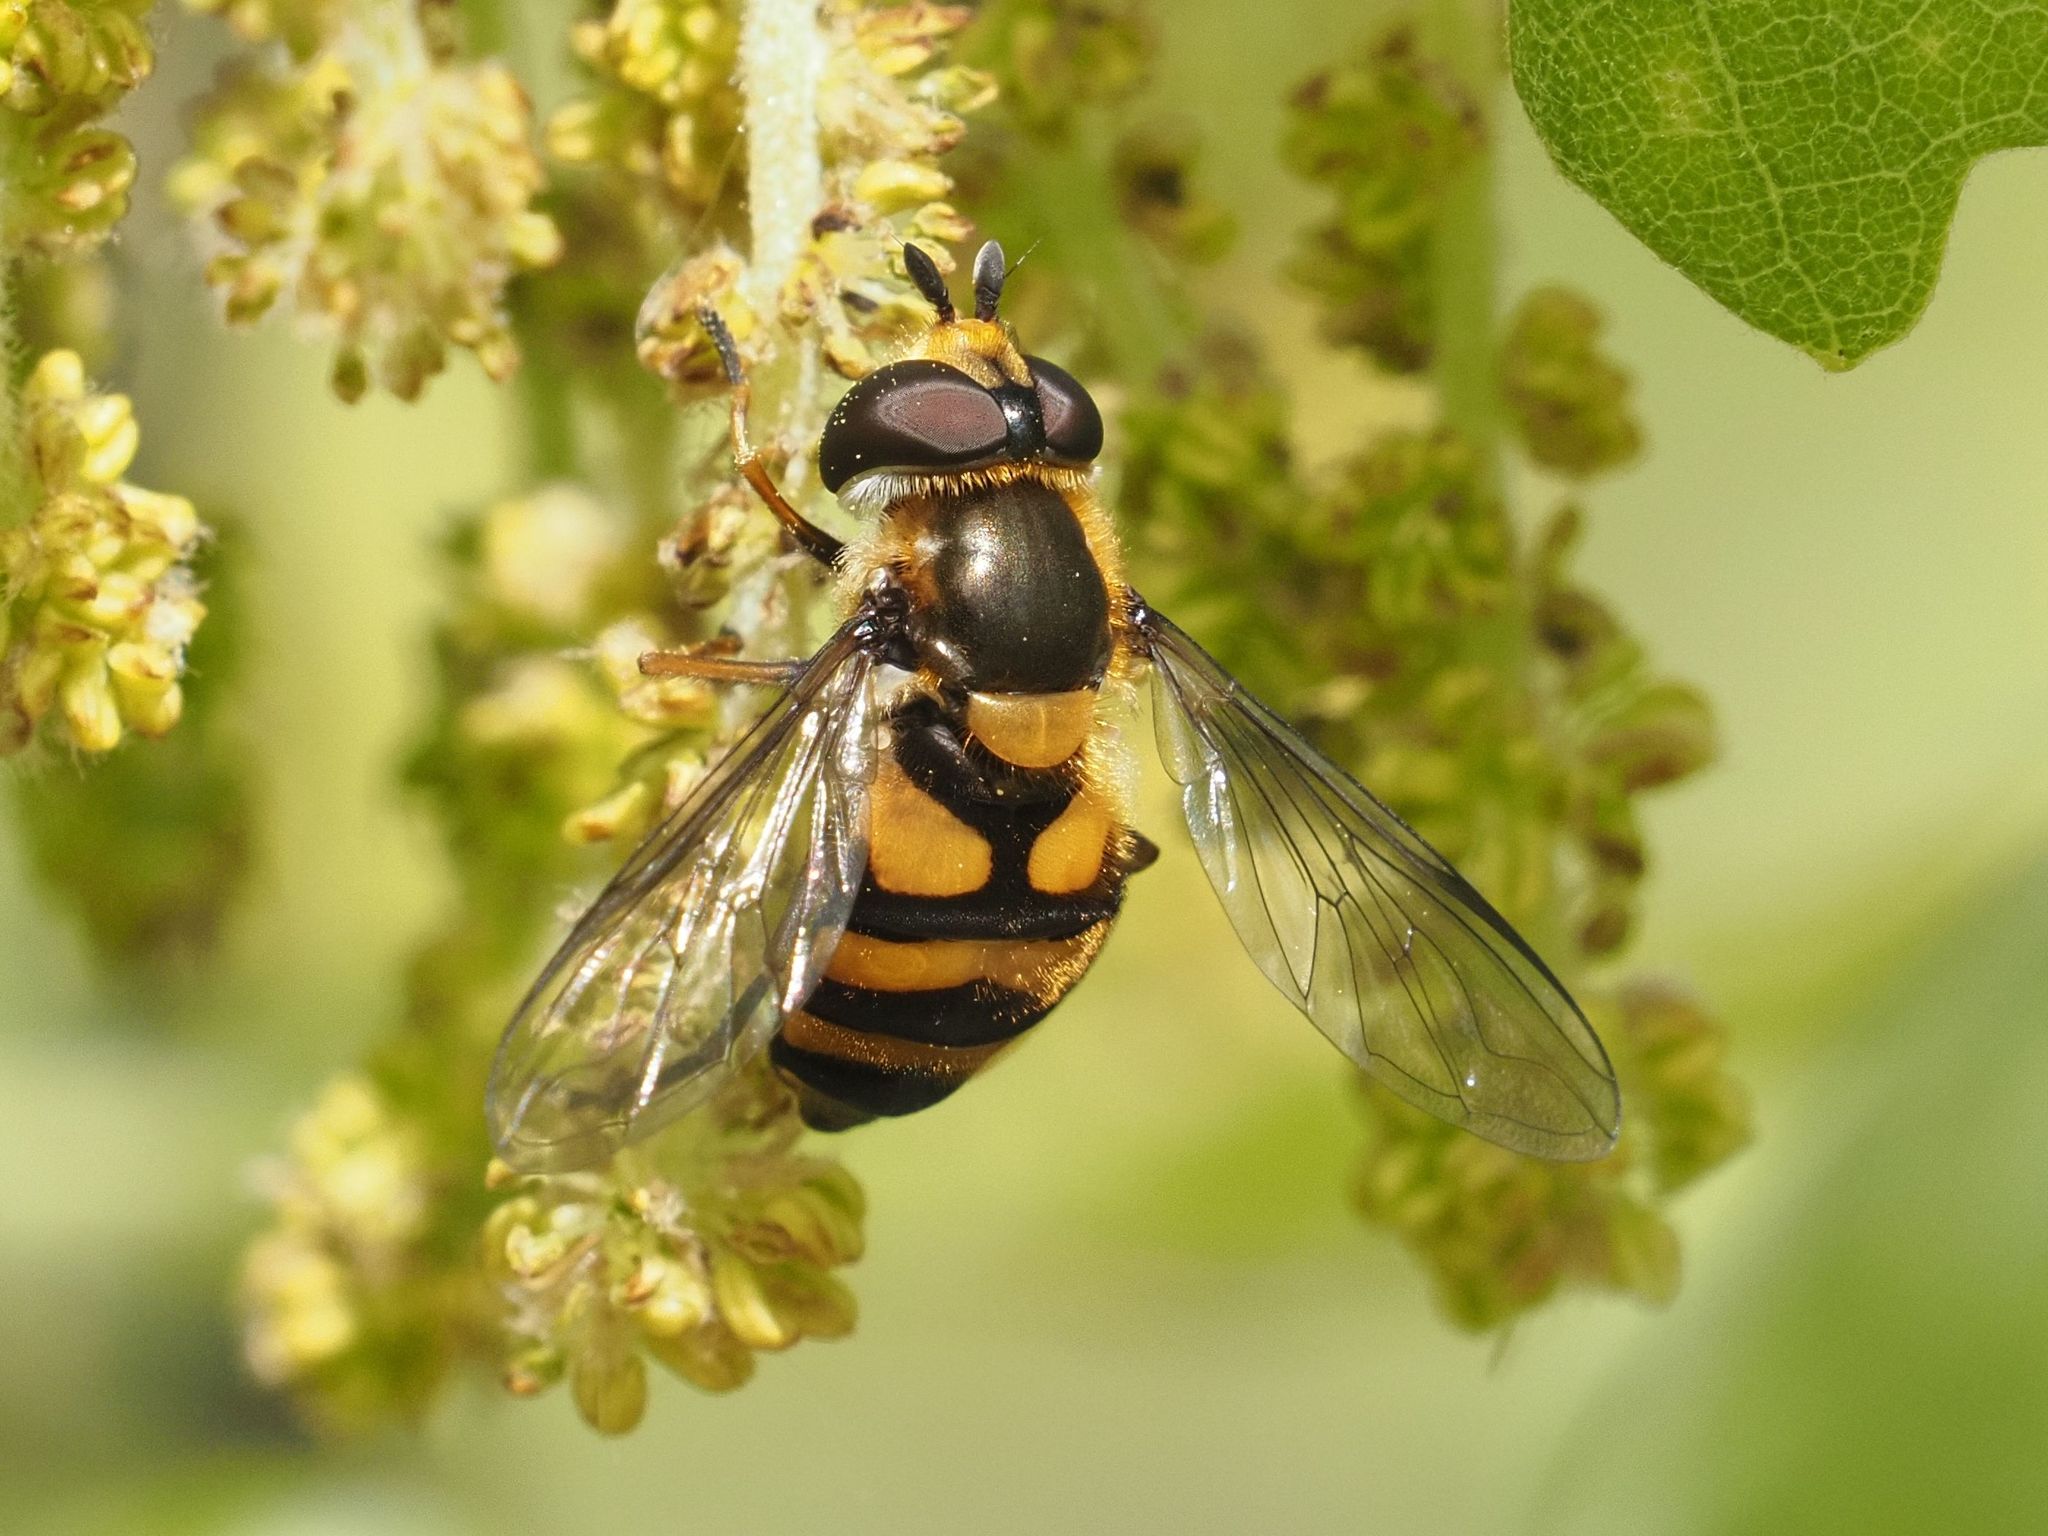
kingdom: Animalia
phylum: Arthropoda
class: Insecta
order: Diptera
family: Syrphidae
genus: Didea
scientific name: Didea fasciata
